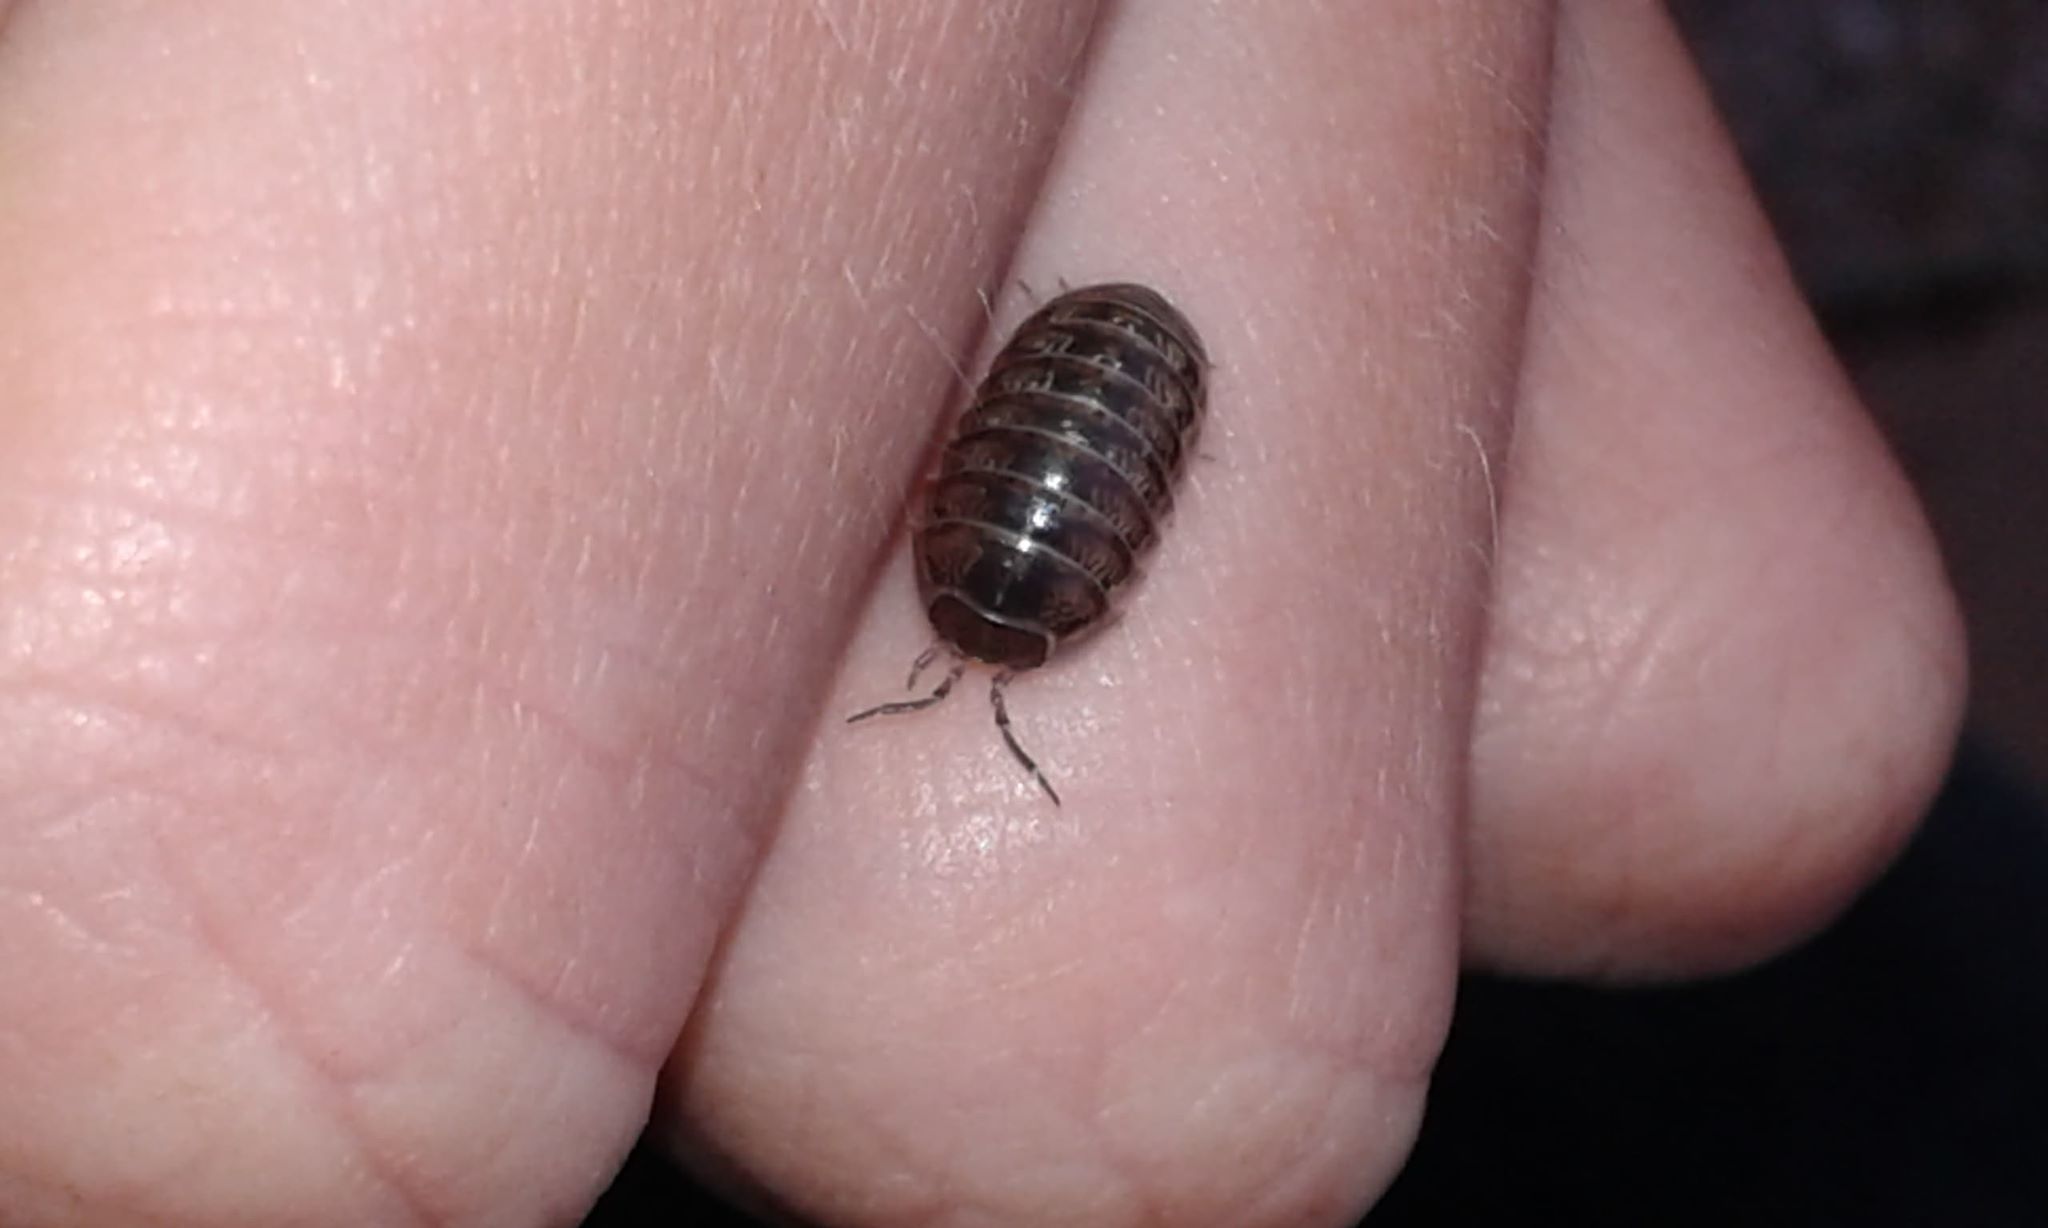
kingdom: Animalia
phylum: Arthropoda
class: Malacostraca
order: Isopoda
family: Armadillidiidae
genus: Armadillidium
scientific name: Armadillidium vulgare
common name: Common pill woodlouse
